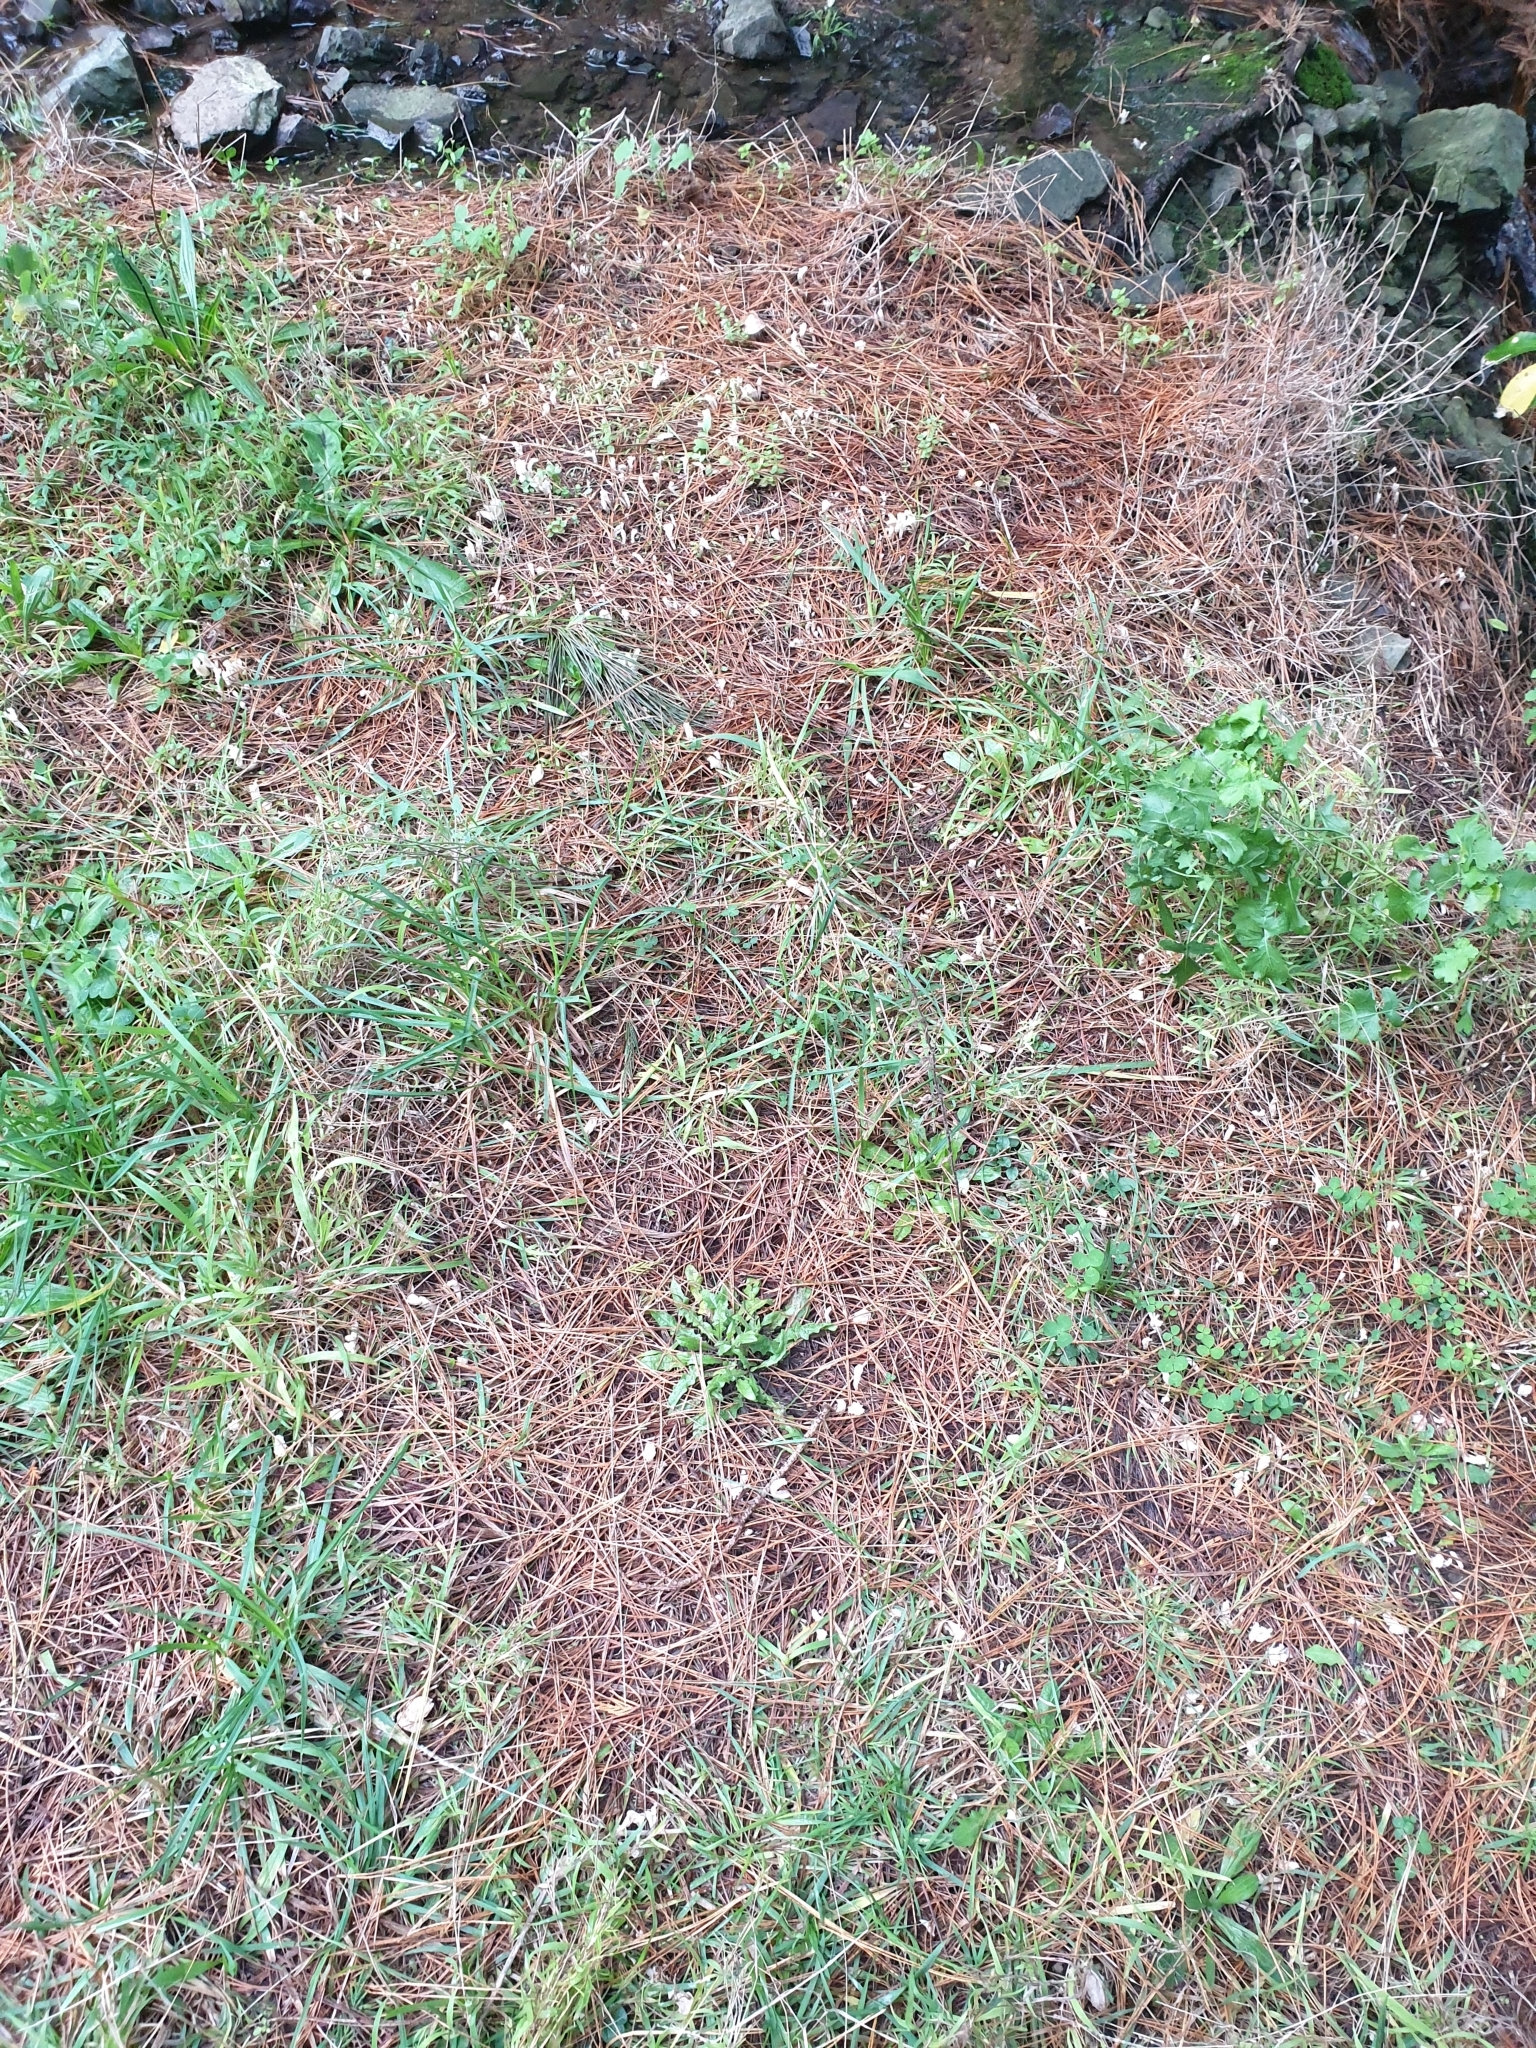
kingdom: Fungi
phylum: Basidiomycota
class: Agaricomycetes
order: Cantharellales
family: Hydnaceae
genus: Clavulina
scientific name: Clavulina rugosa
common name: Wrinkled club
